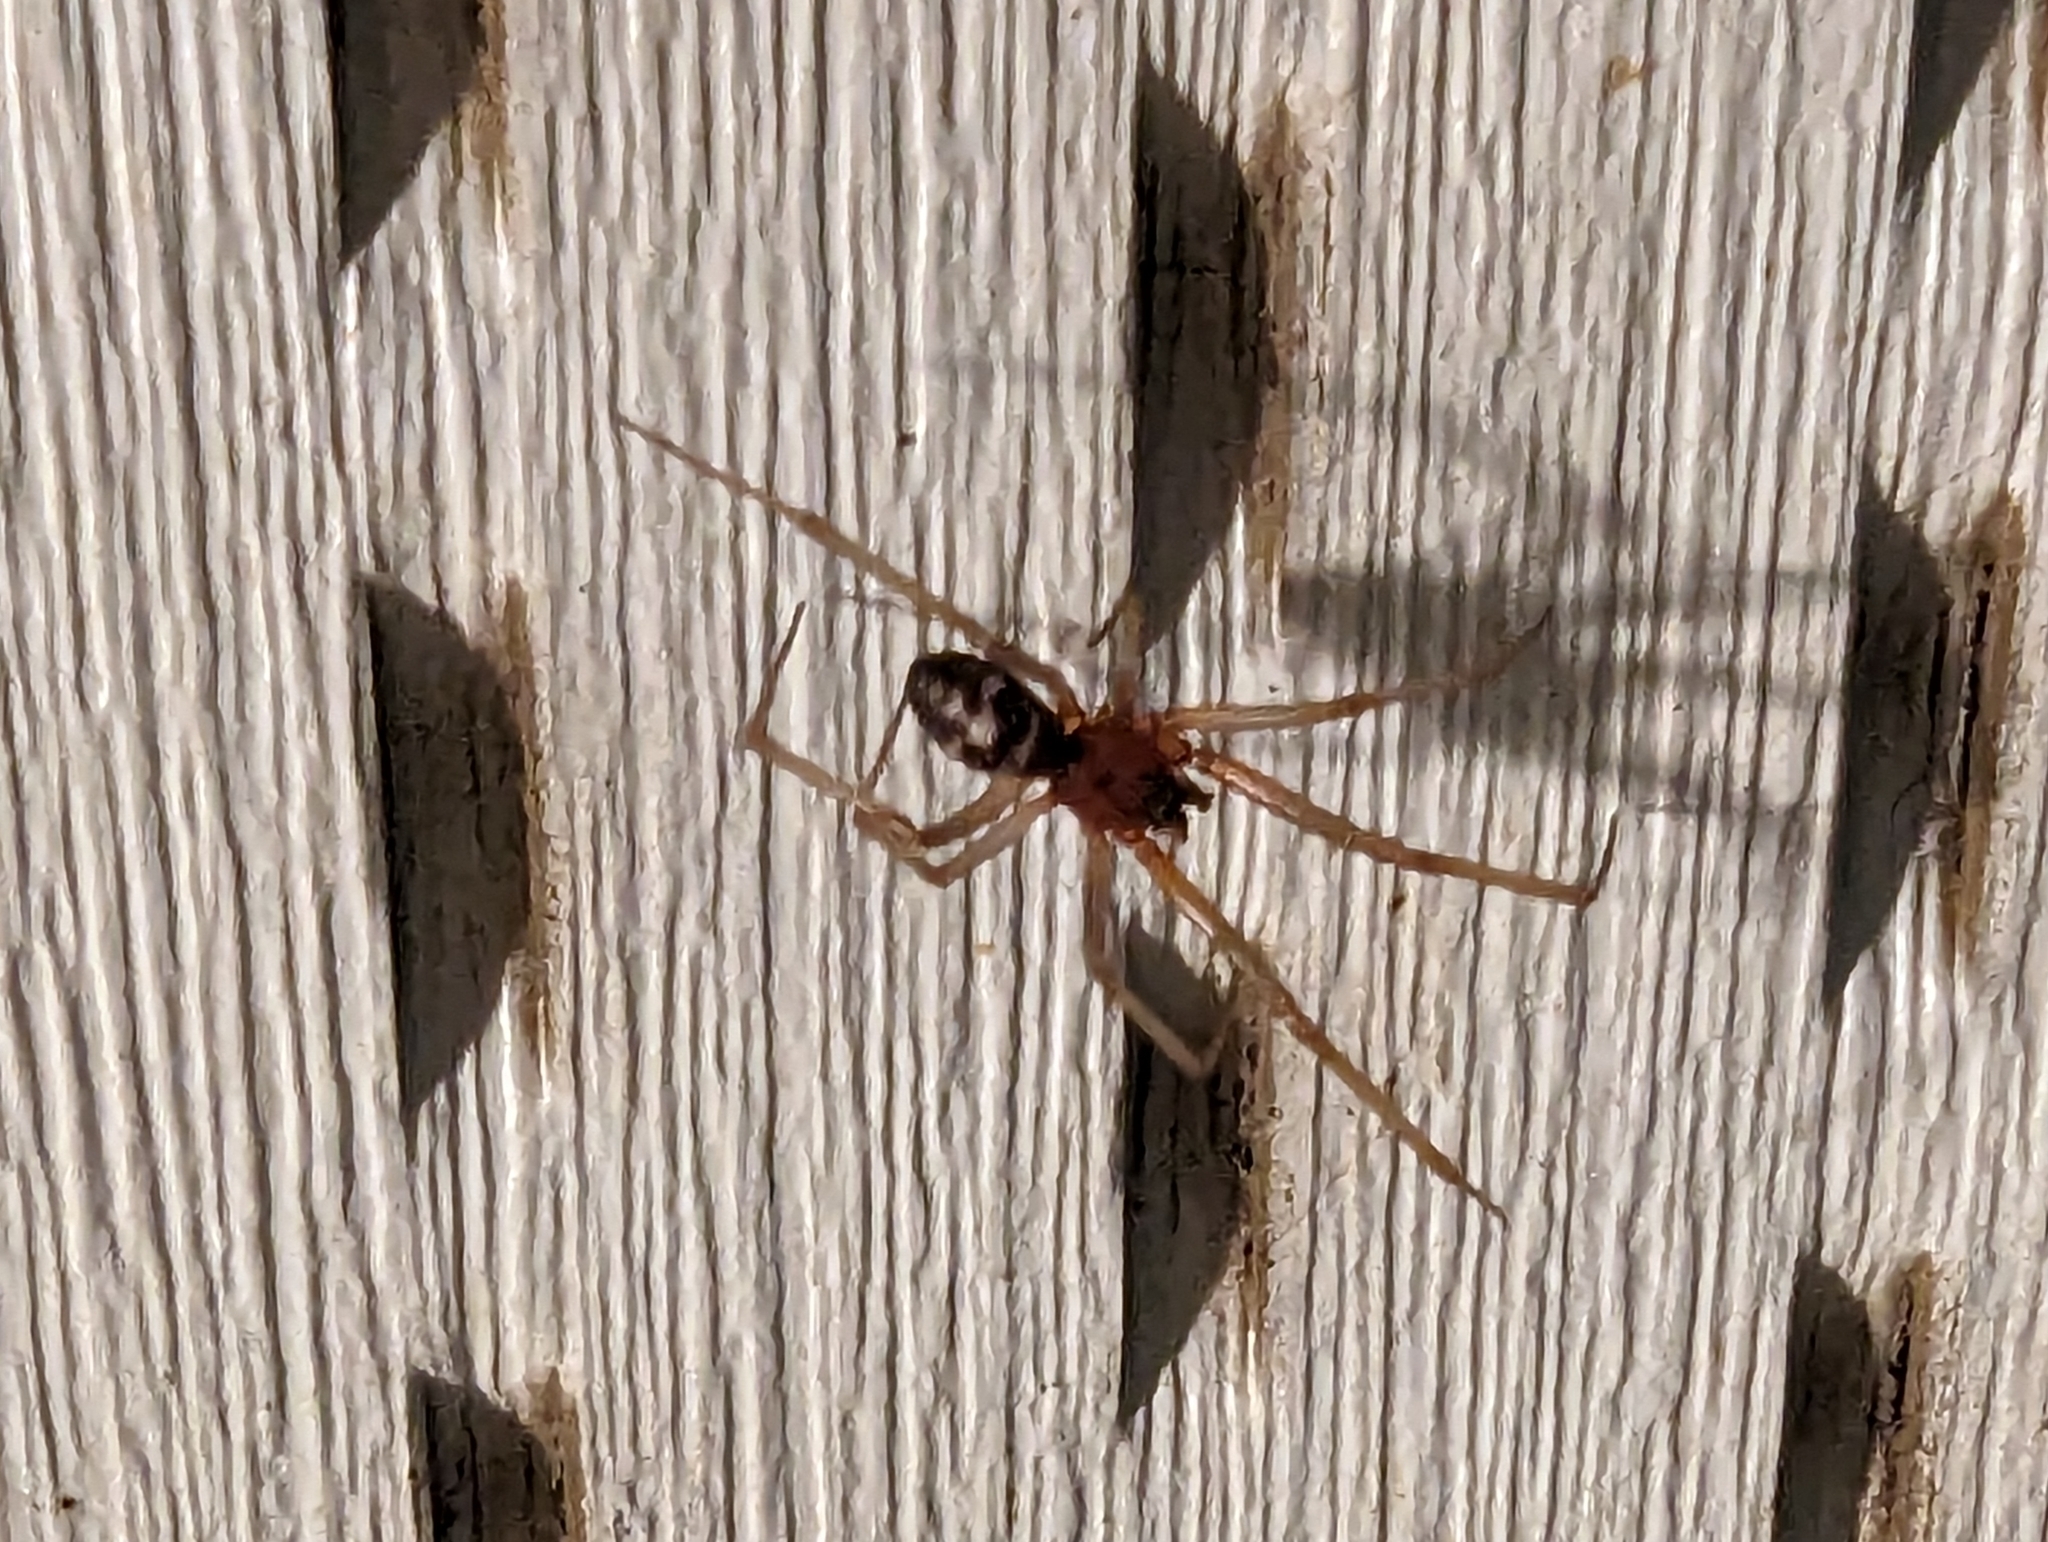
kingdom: Animalia
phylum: Arthropoda
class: Arachnida
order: Araneae
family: Theridiidae
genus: Steatoda
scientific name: Steatoda grossa
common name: False black widow
